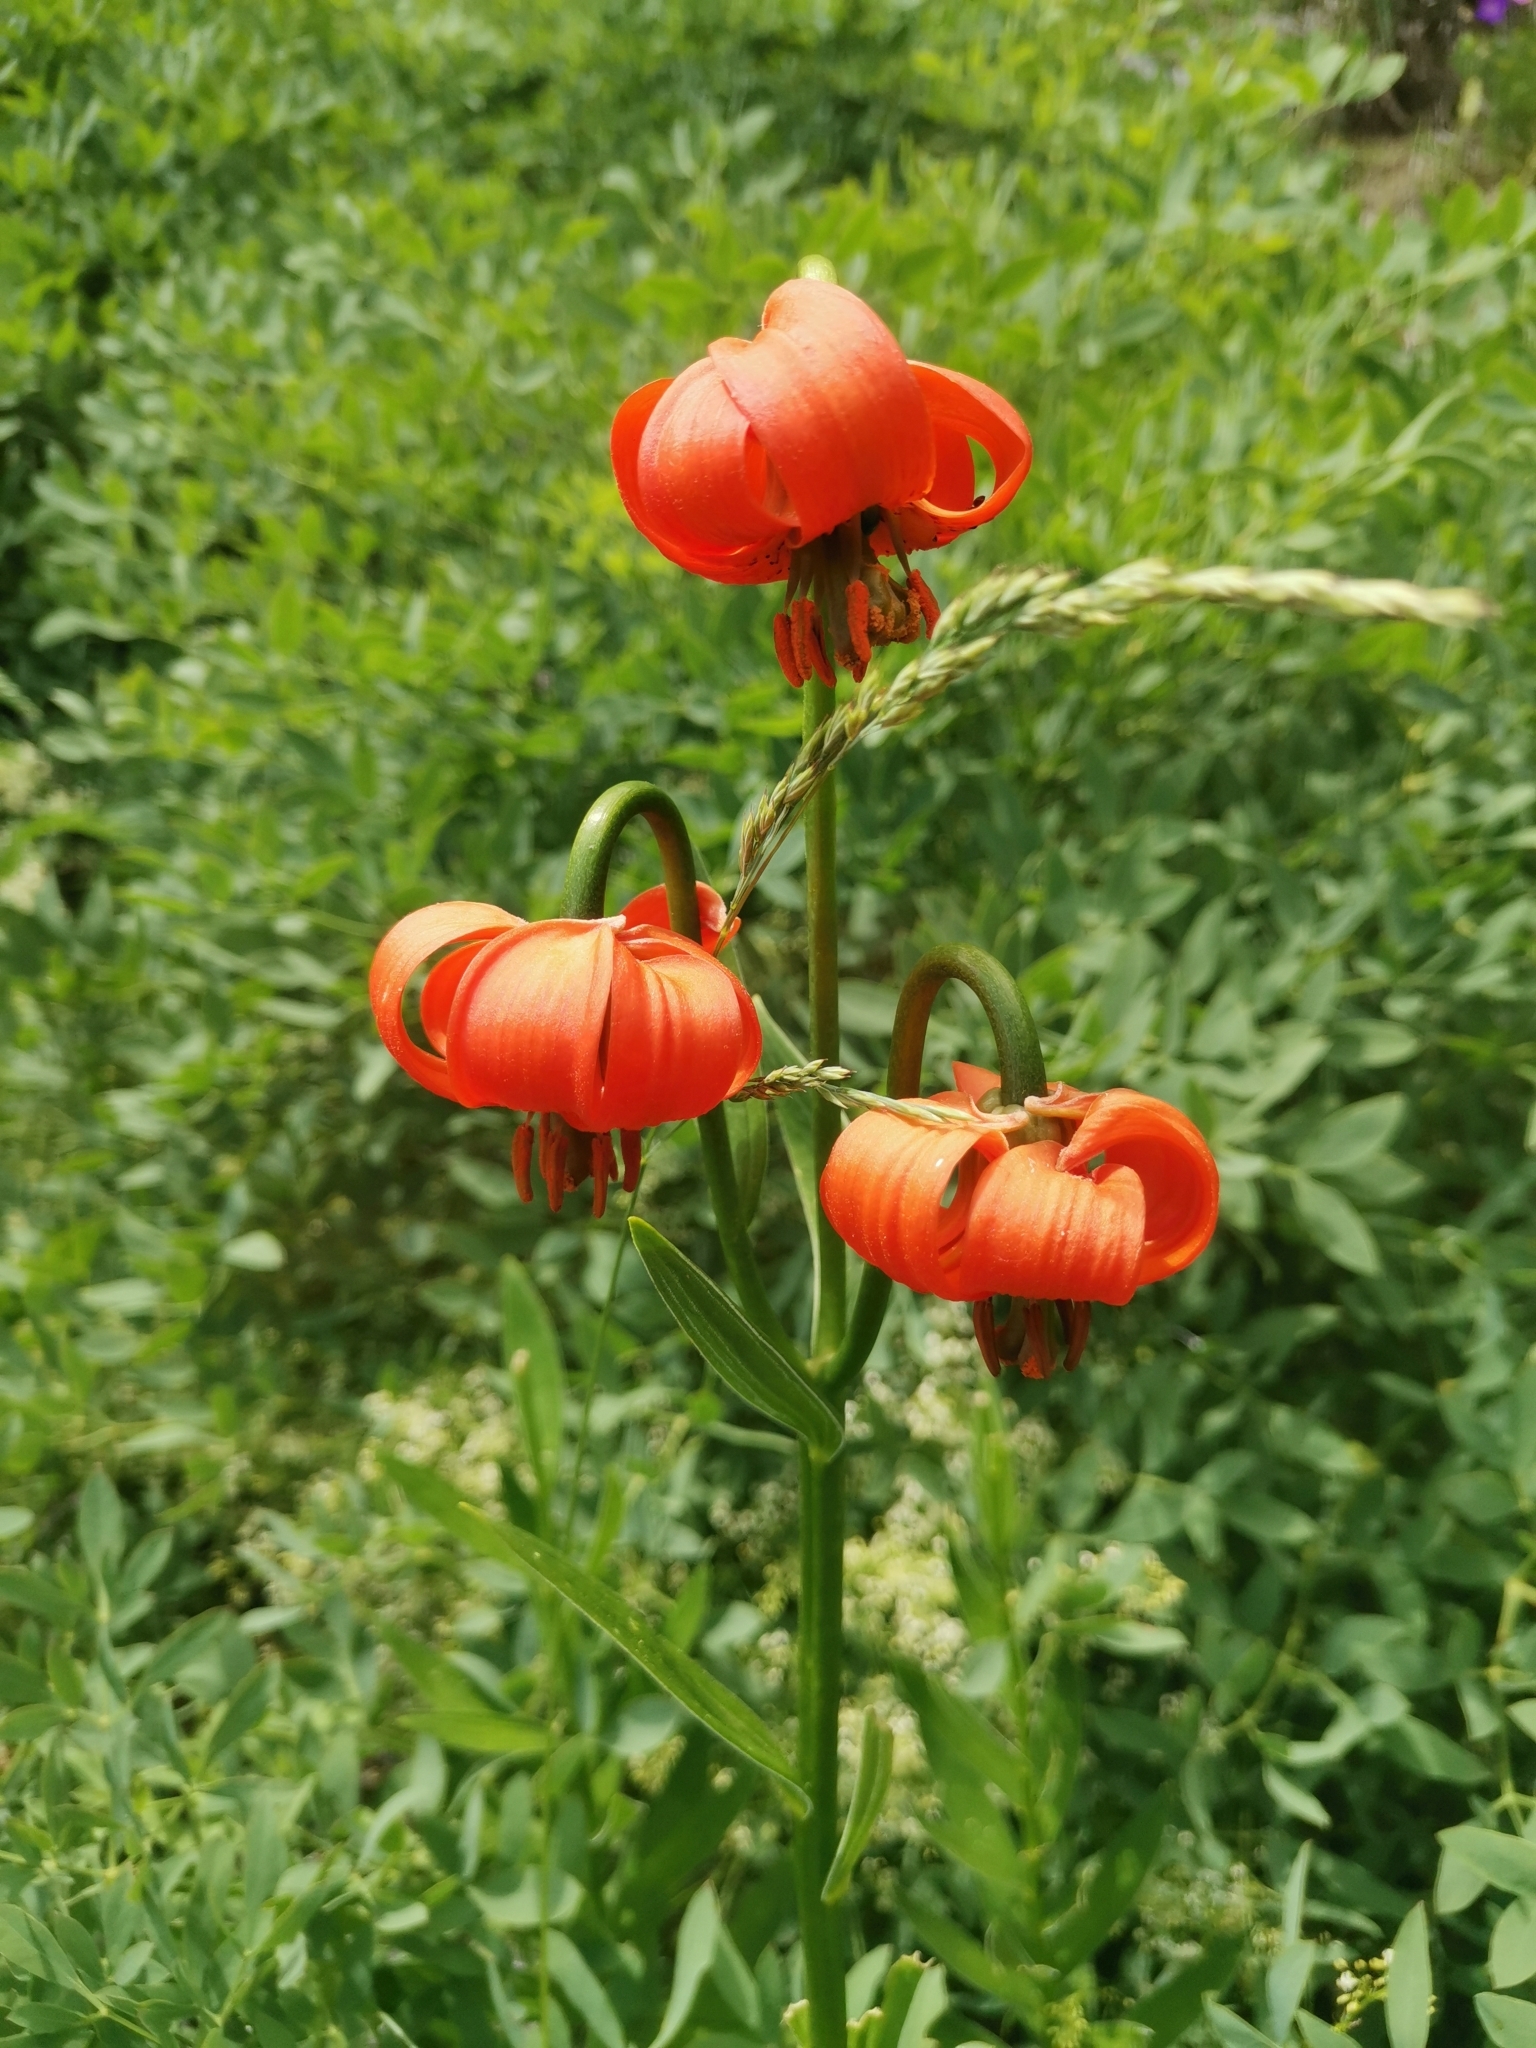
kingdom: Plantae
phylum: Tracheophyta
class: Liliopsida
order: Liliales
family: Liliaceae
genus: Lilium
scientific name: Lilium carniolicum
